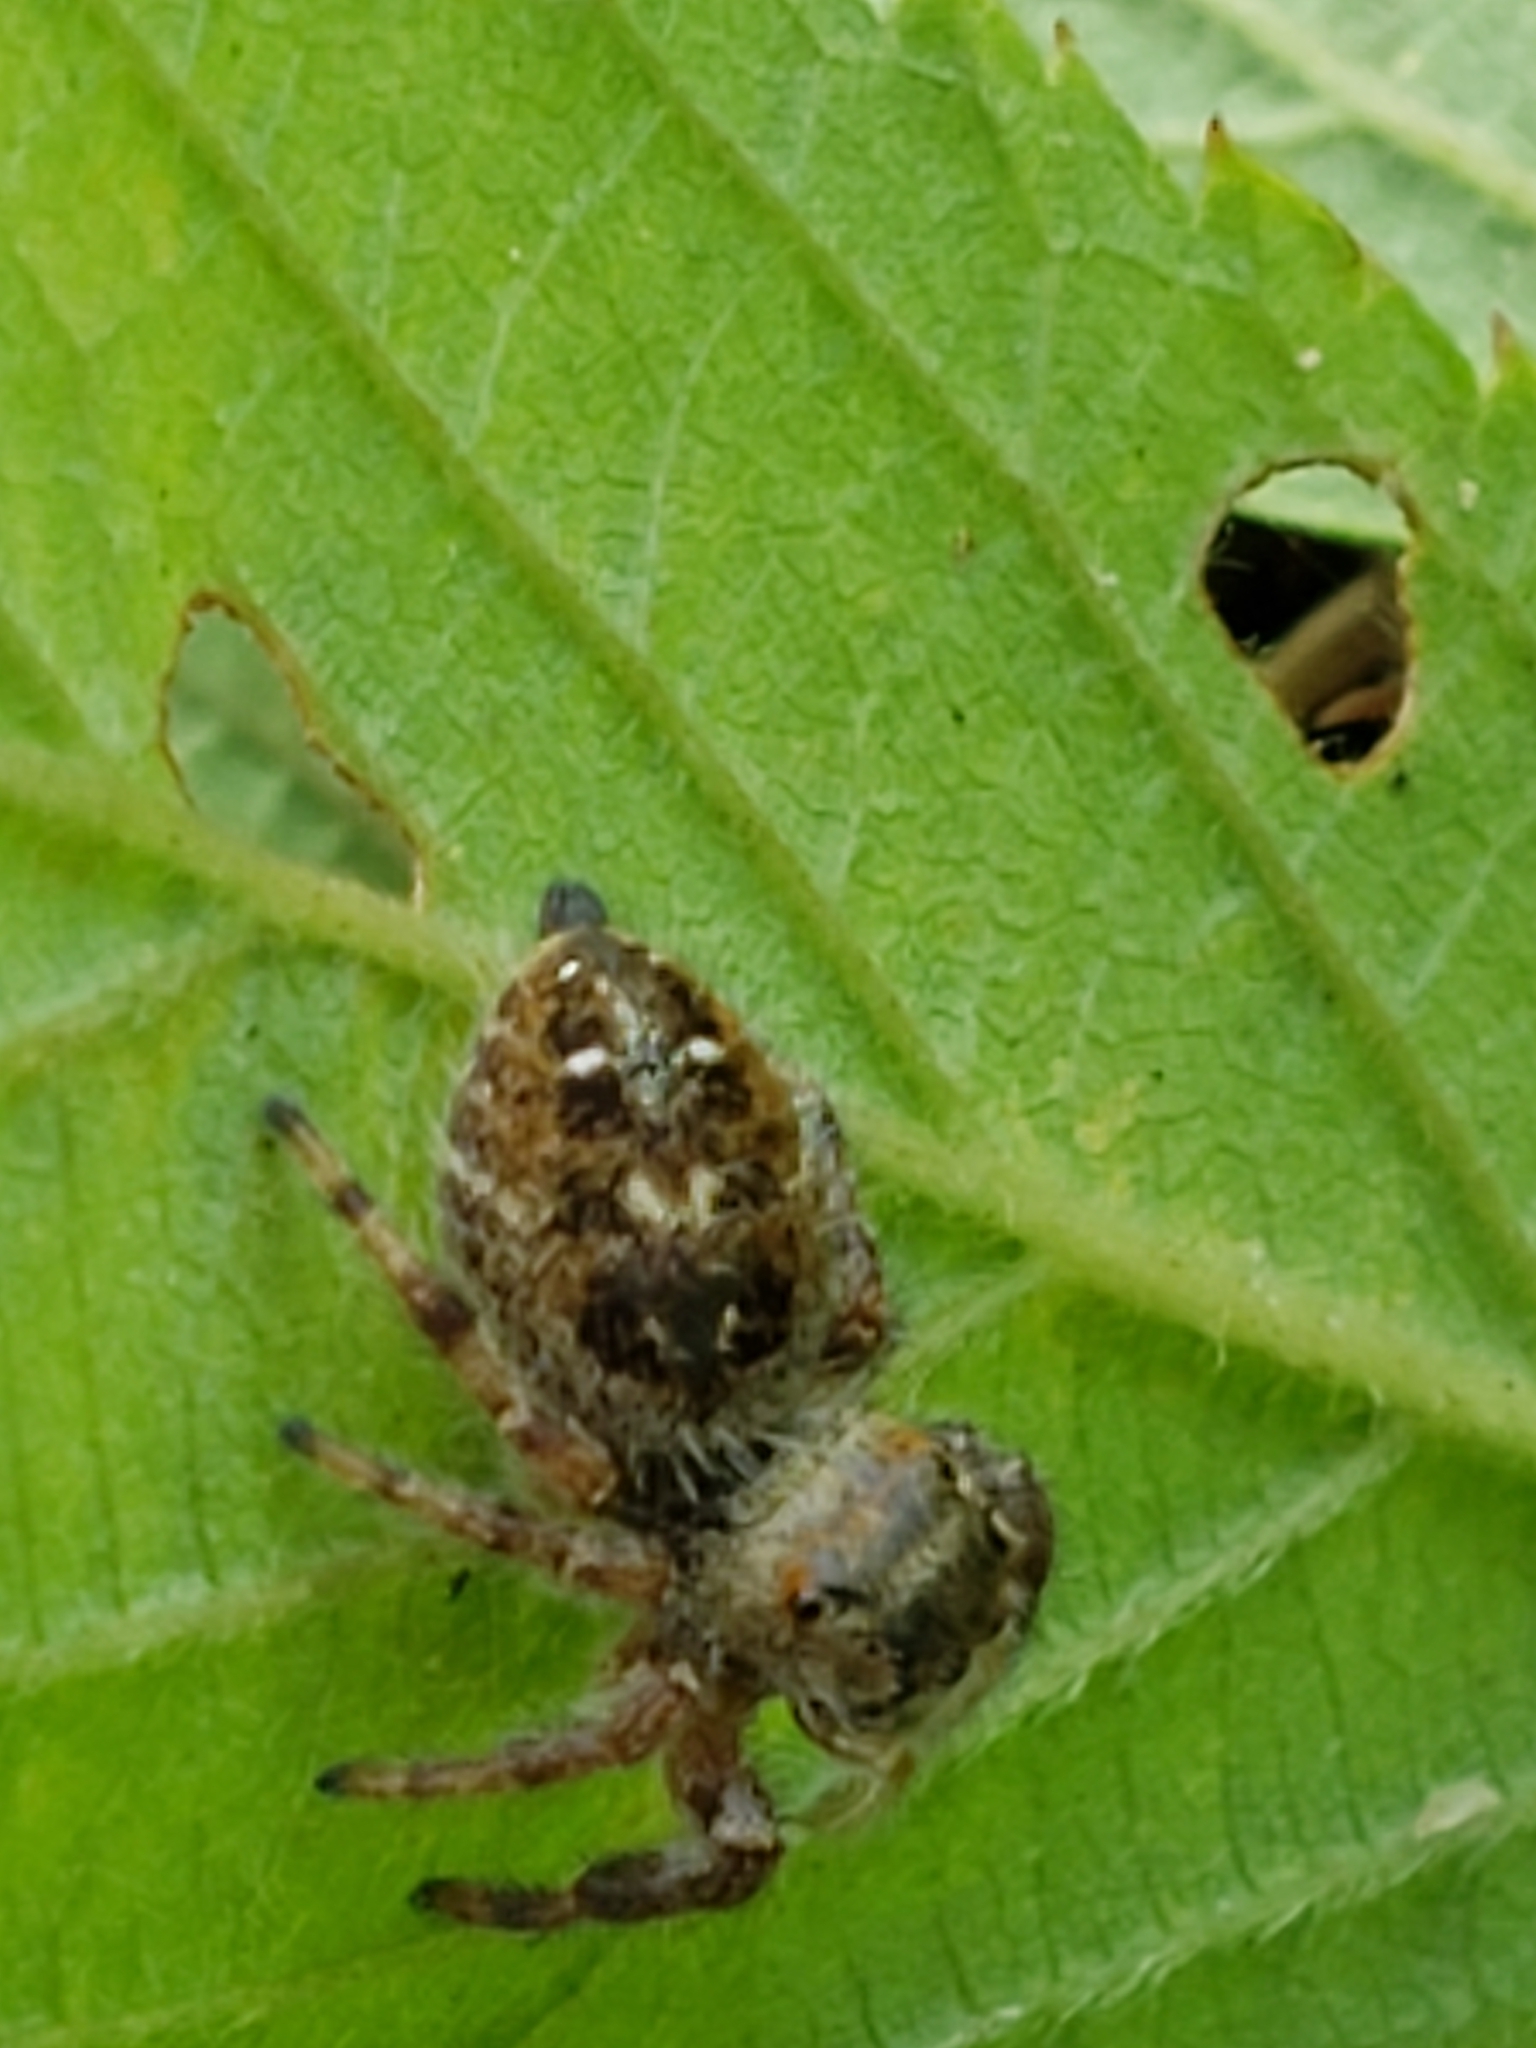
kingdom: Animalia
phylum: Arthropoda
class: Arachnida
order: Araneae
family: Salticidae
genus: Phidippus
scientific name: Phidippus princeps
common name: Grayish jumping spider
